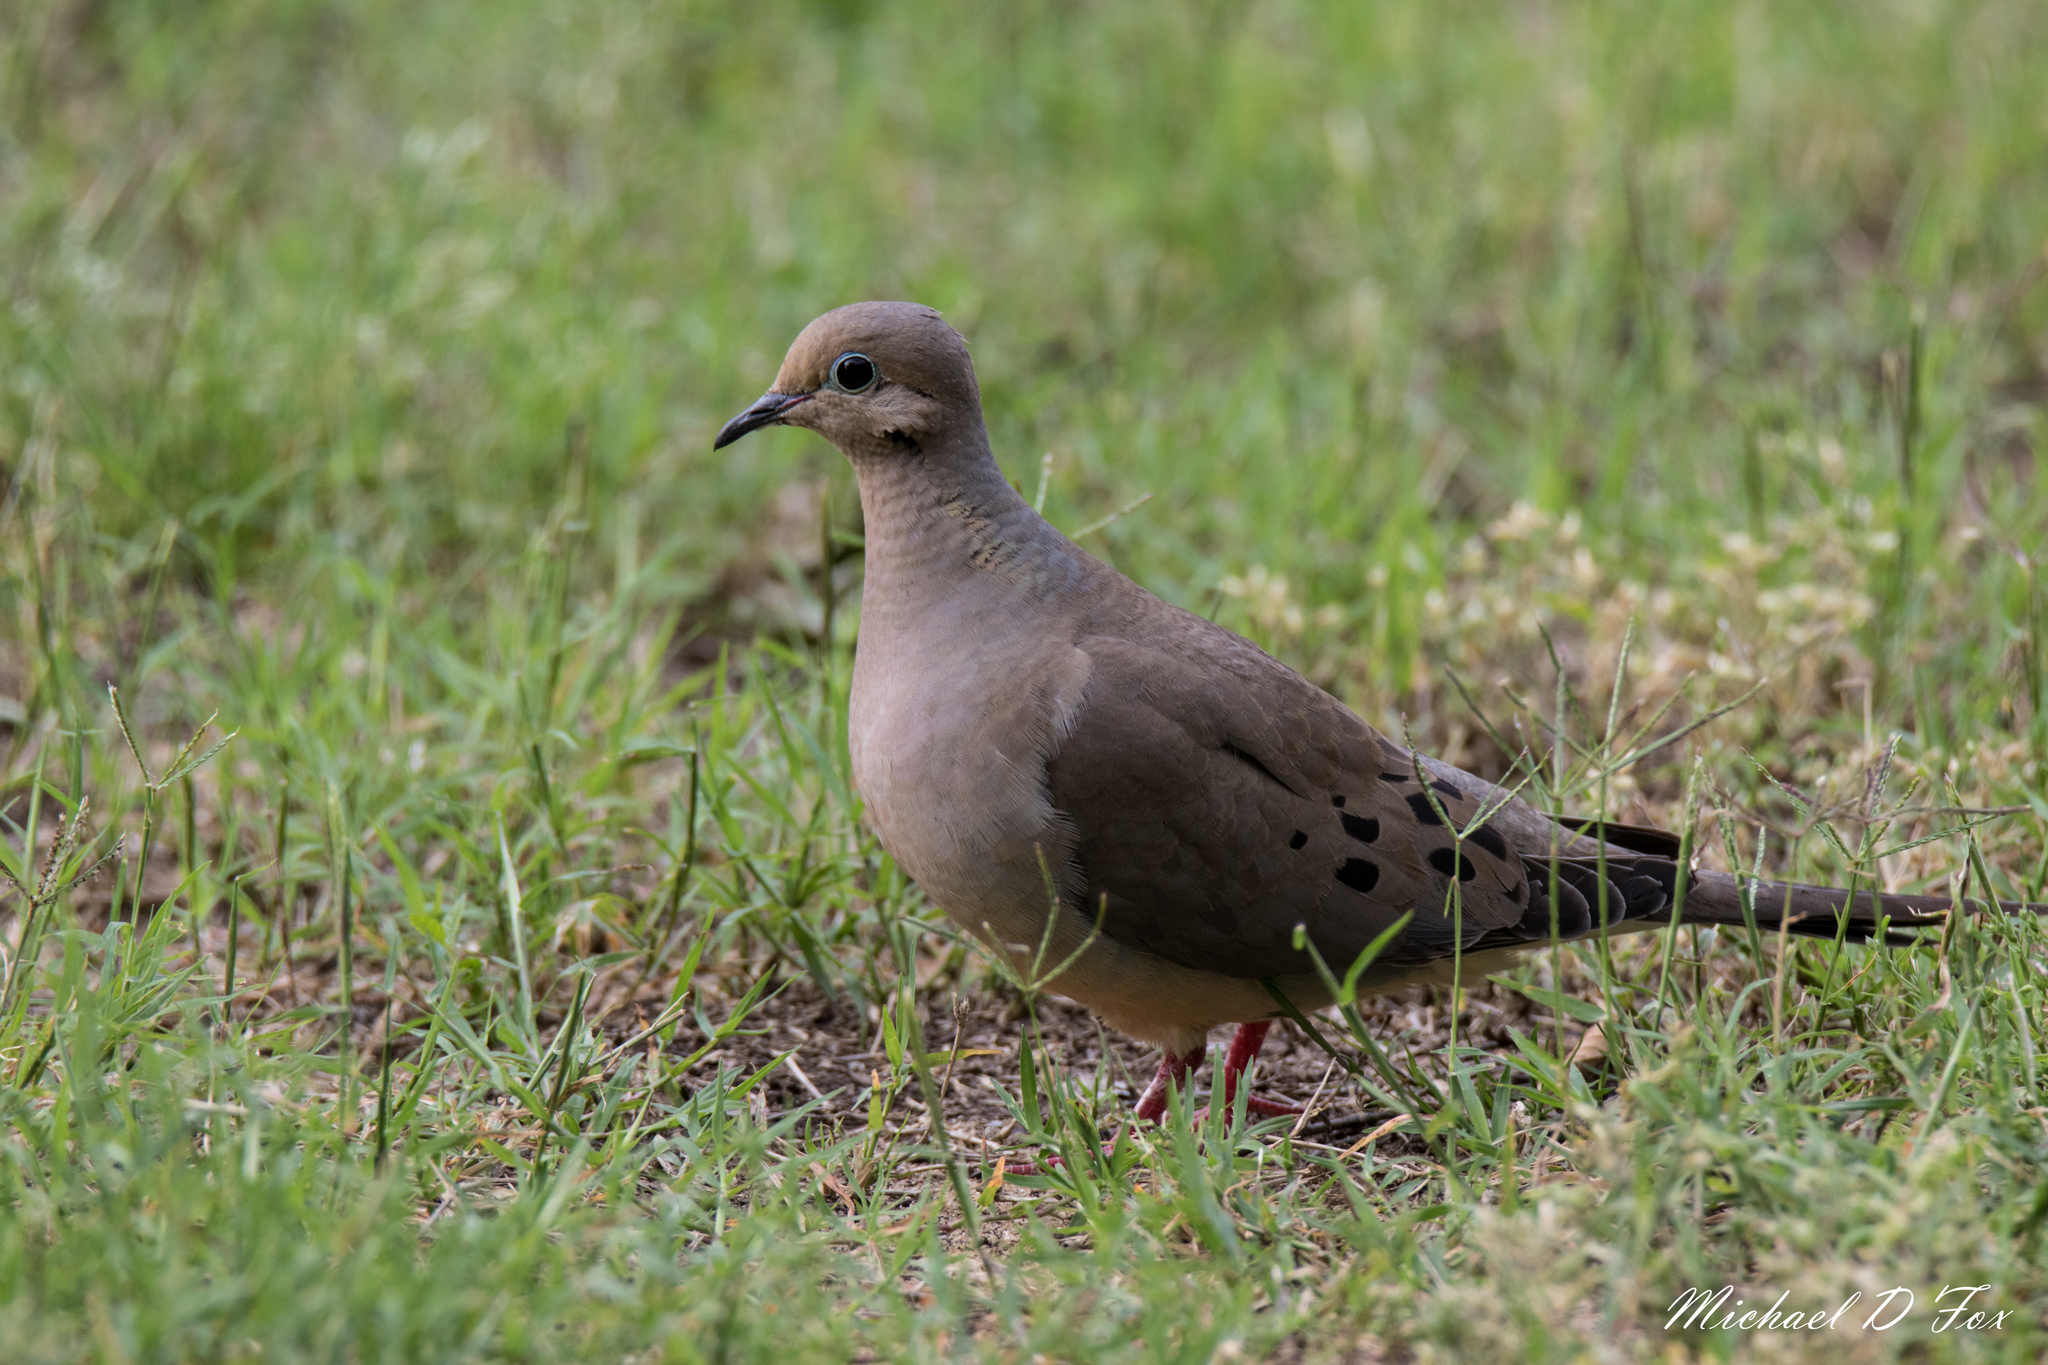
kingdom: Animalia
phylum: Chordata
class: Aves
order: Columbiformes
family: Columbidae
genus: Zenaida
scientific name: Zenaida macroura
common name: Mourning dove
